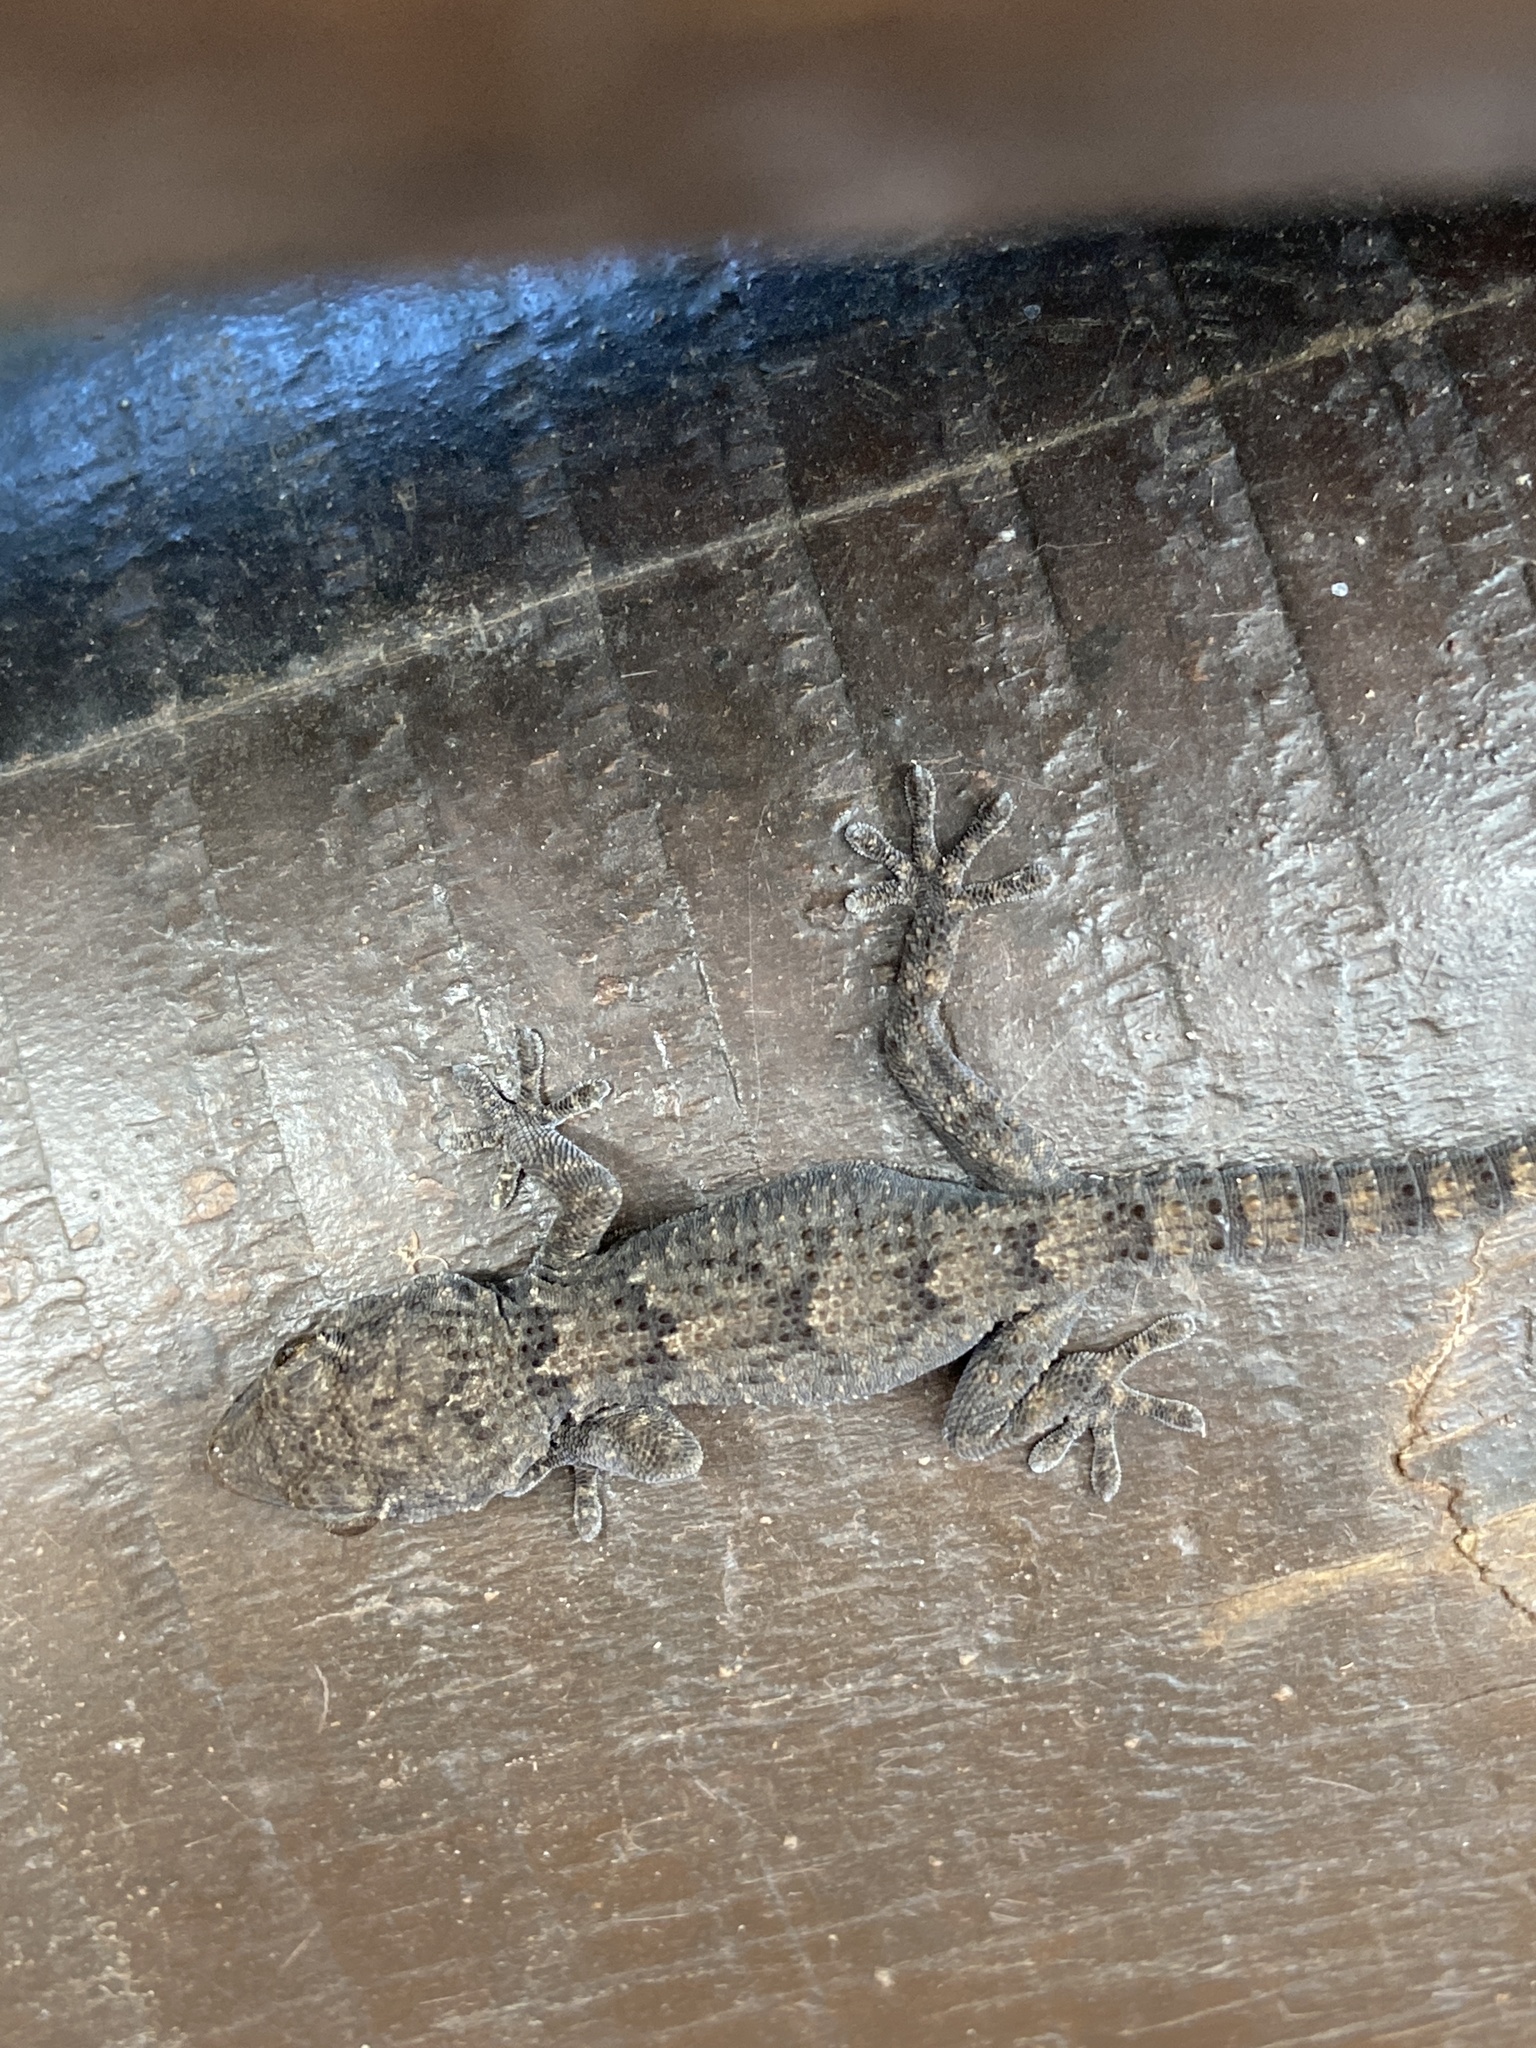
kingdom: Animalia
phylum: Chordata
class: Squamata
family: Phyllodactylidae
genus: Tarentola
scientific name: Tarentola angustimentalis
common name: East canary gecko
